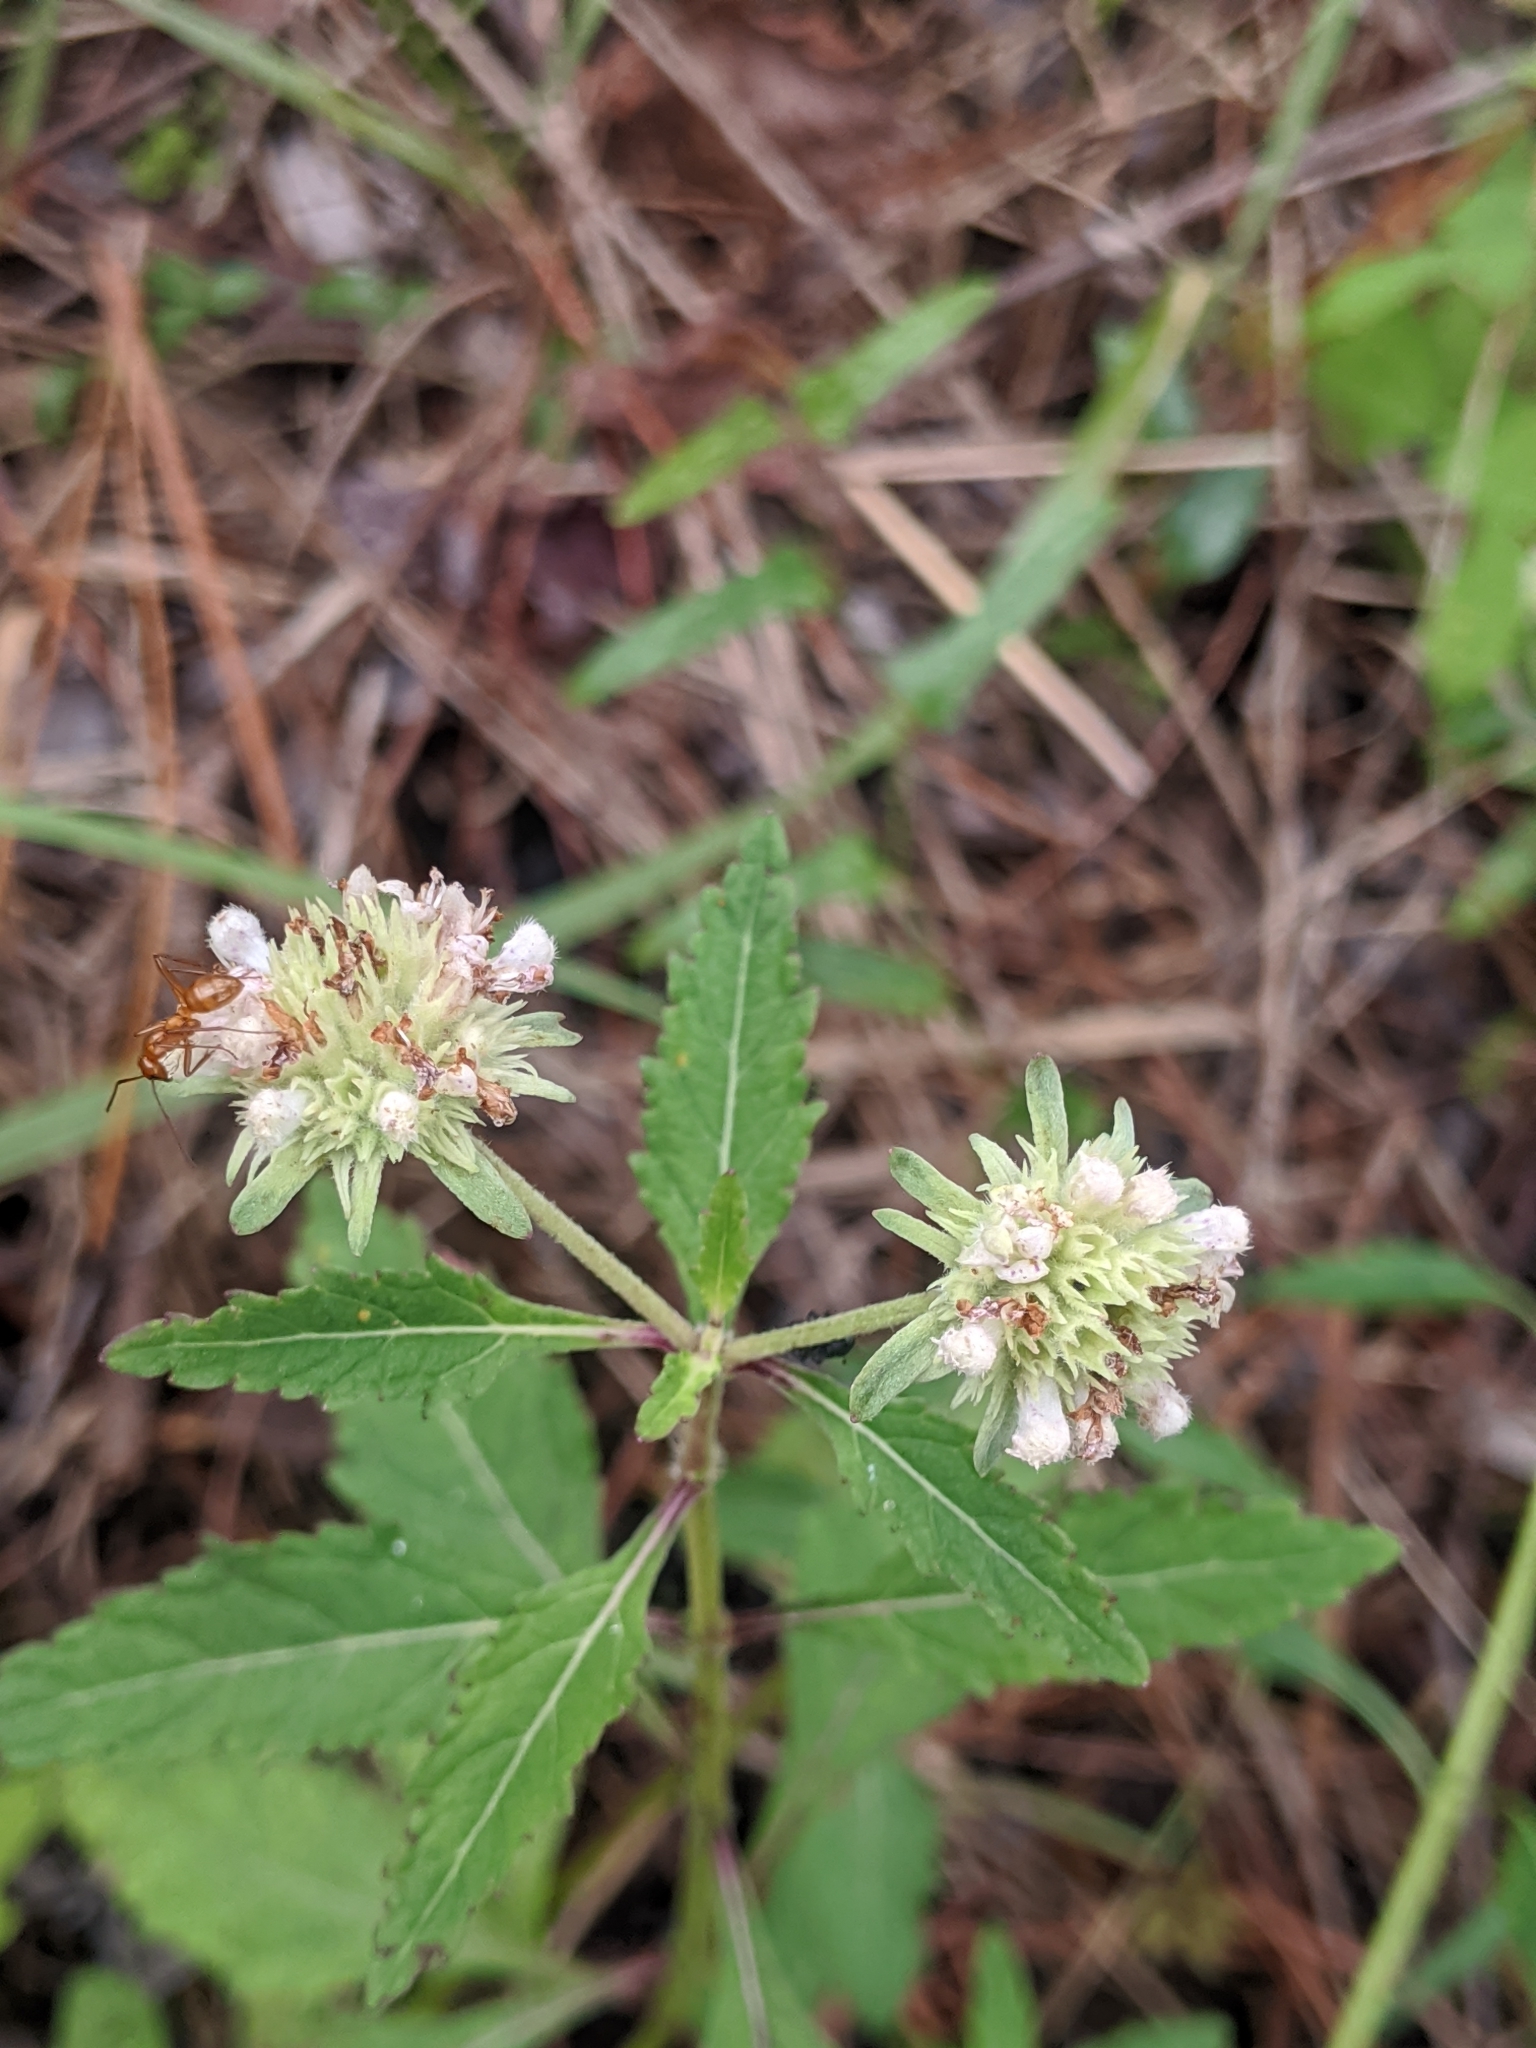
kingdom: Plantae
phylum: Tracheophyta
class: Magnoliopsida
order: Lamiales
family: Lamiaceae
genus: Hyptis
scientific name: Hyptis alata
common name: Cluster bush-mint
